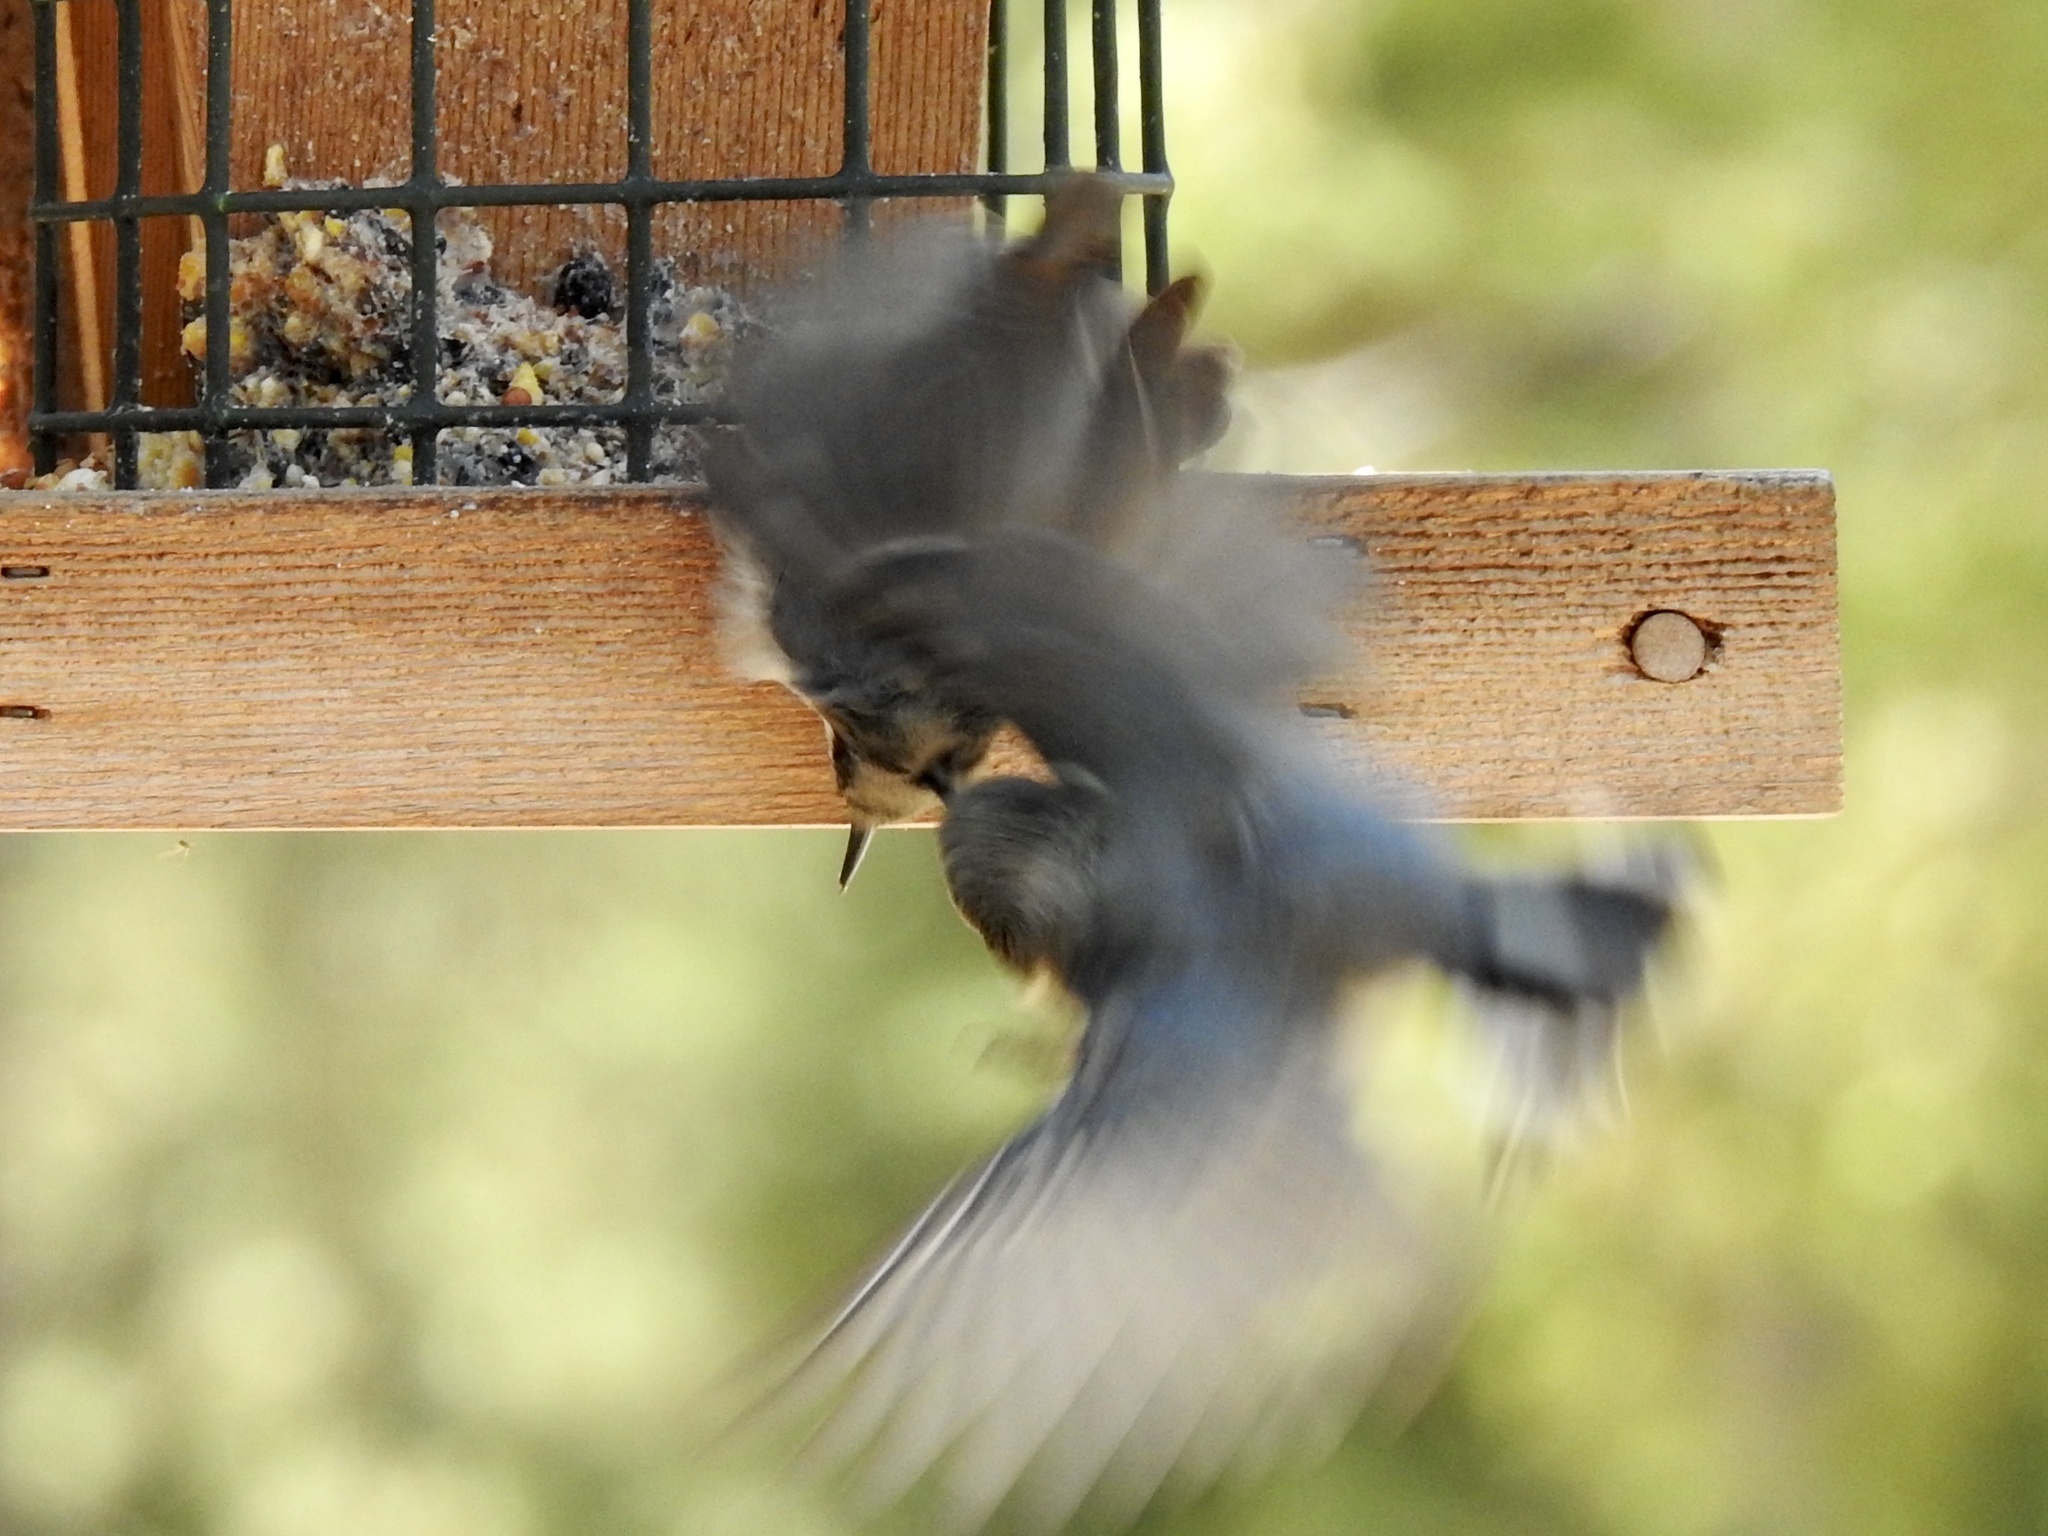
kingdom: Animalia
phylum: Chordata
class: Aves
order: Passeriformes
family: Sittidae
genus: Sitta
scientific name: Sitta pygmaea
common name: Pygmy nuthatch
